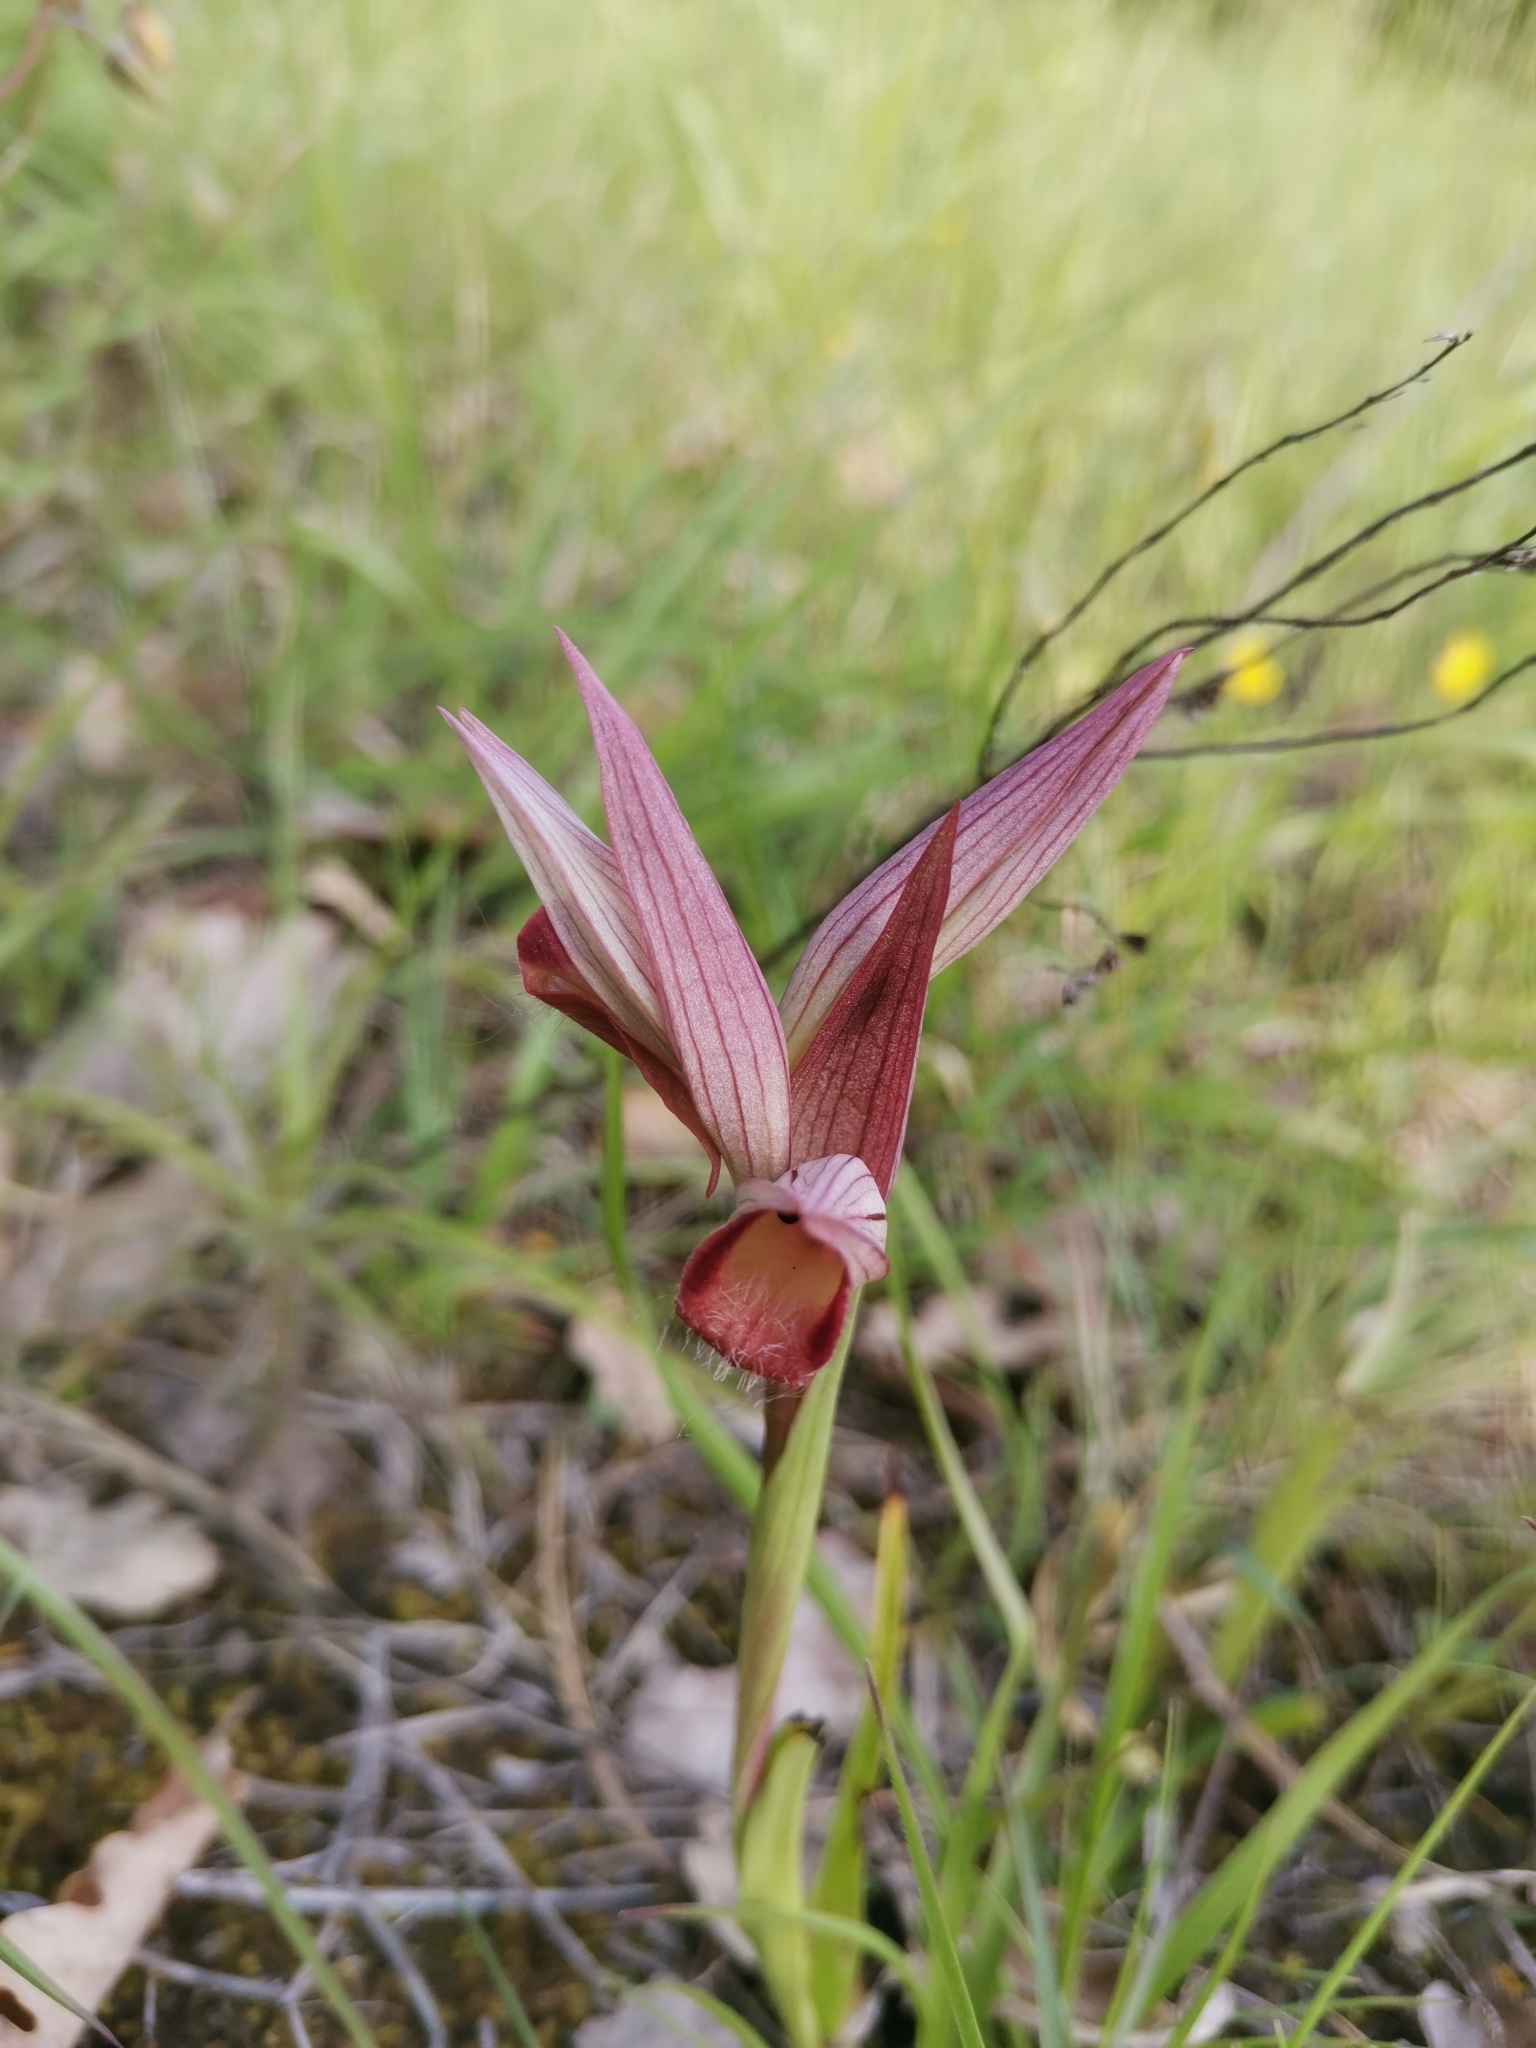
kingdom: Plantae
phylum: Tracheophyta
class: Liliopsida
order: Asparagales
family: Orchidaceae
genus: Serapias
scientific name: Serapias vomeracea
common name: Long-lipped tongue-orchid
